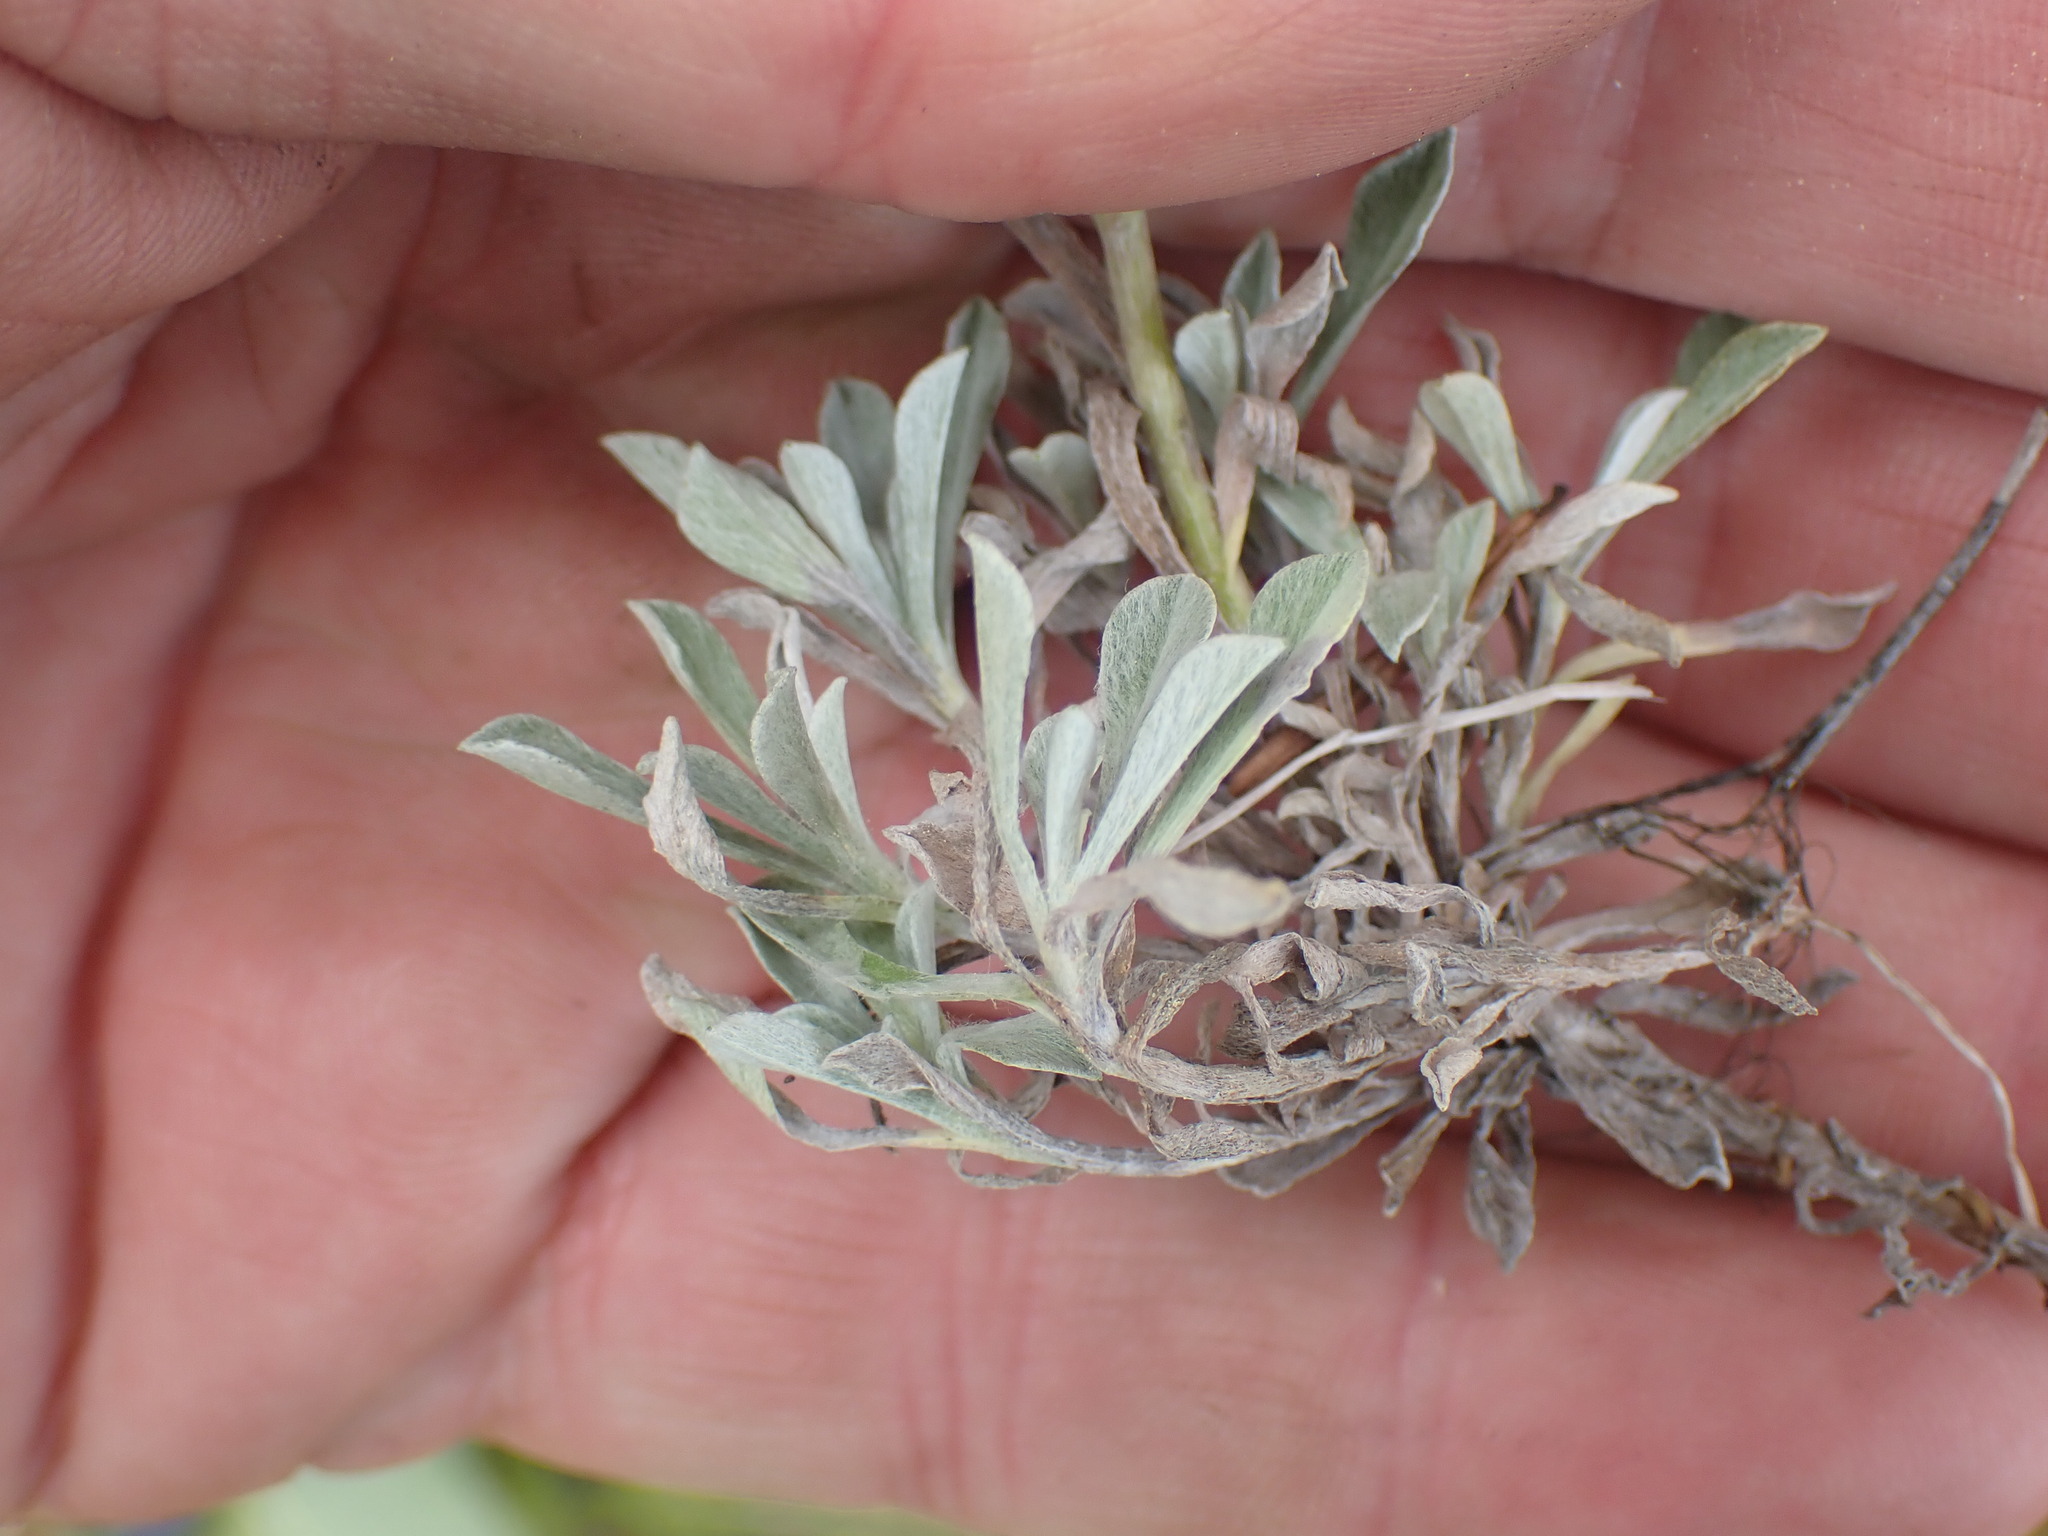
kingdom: Plantae
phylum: Tracheophyta
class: Magnoliopsida
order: Asterales
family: Asteraceae
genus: Antennaria
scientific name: Antennaria rosea
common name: Rosy pussytoes
